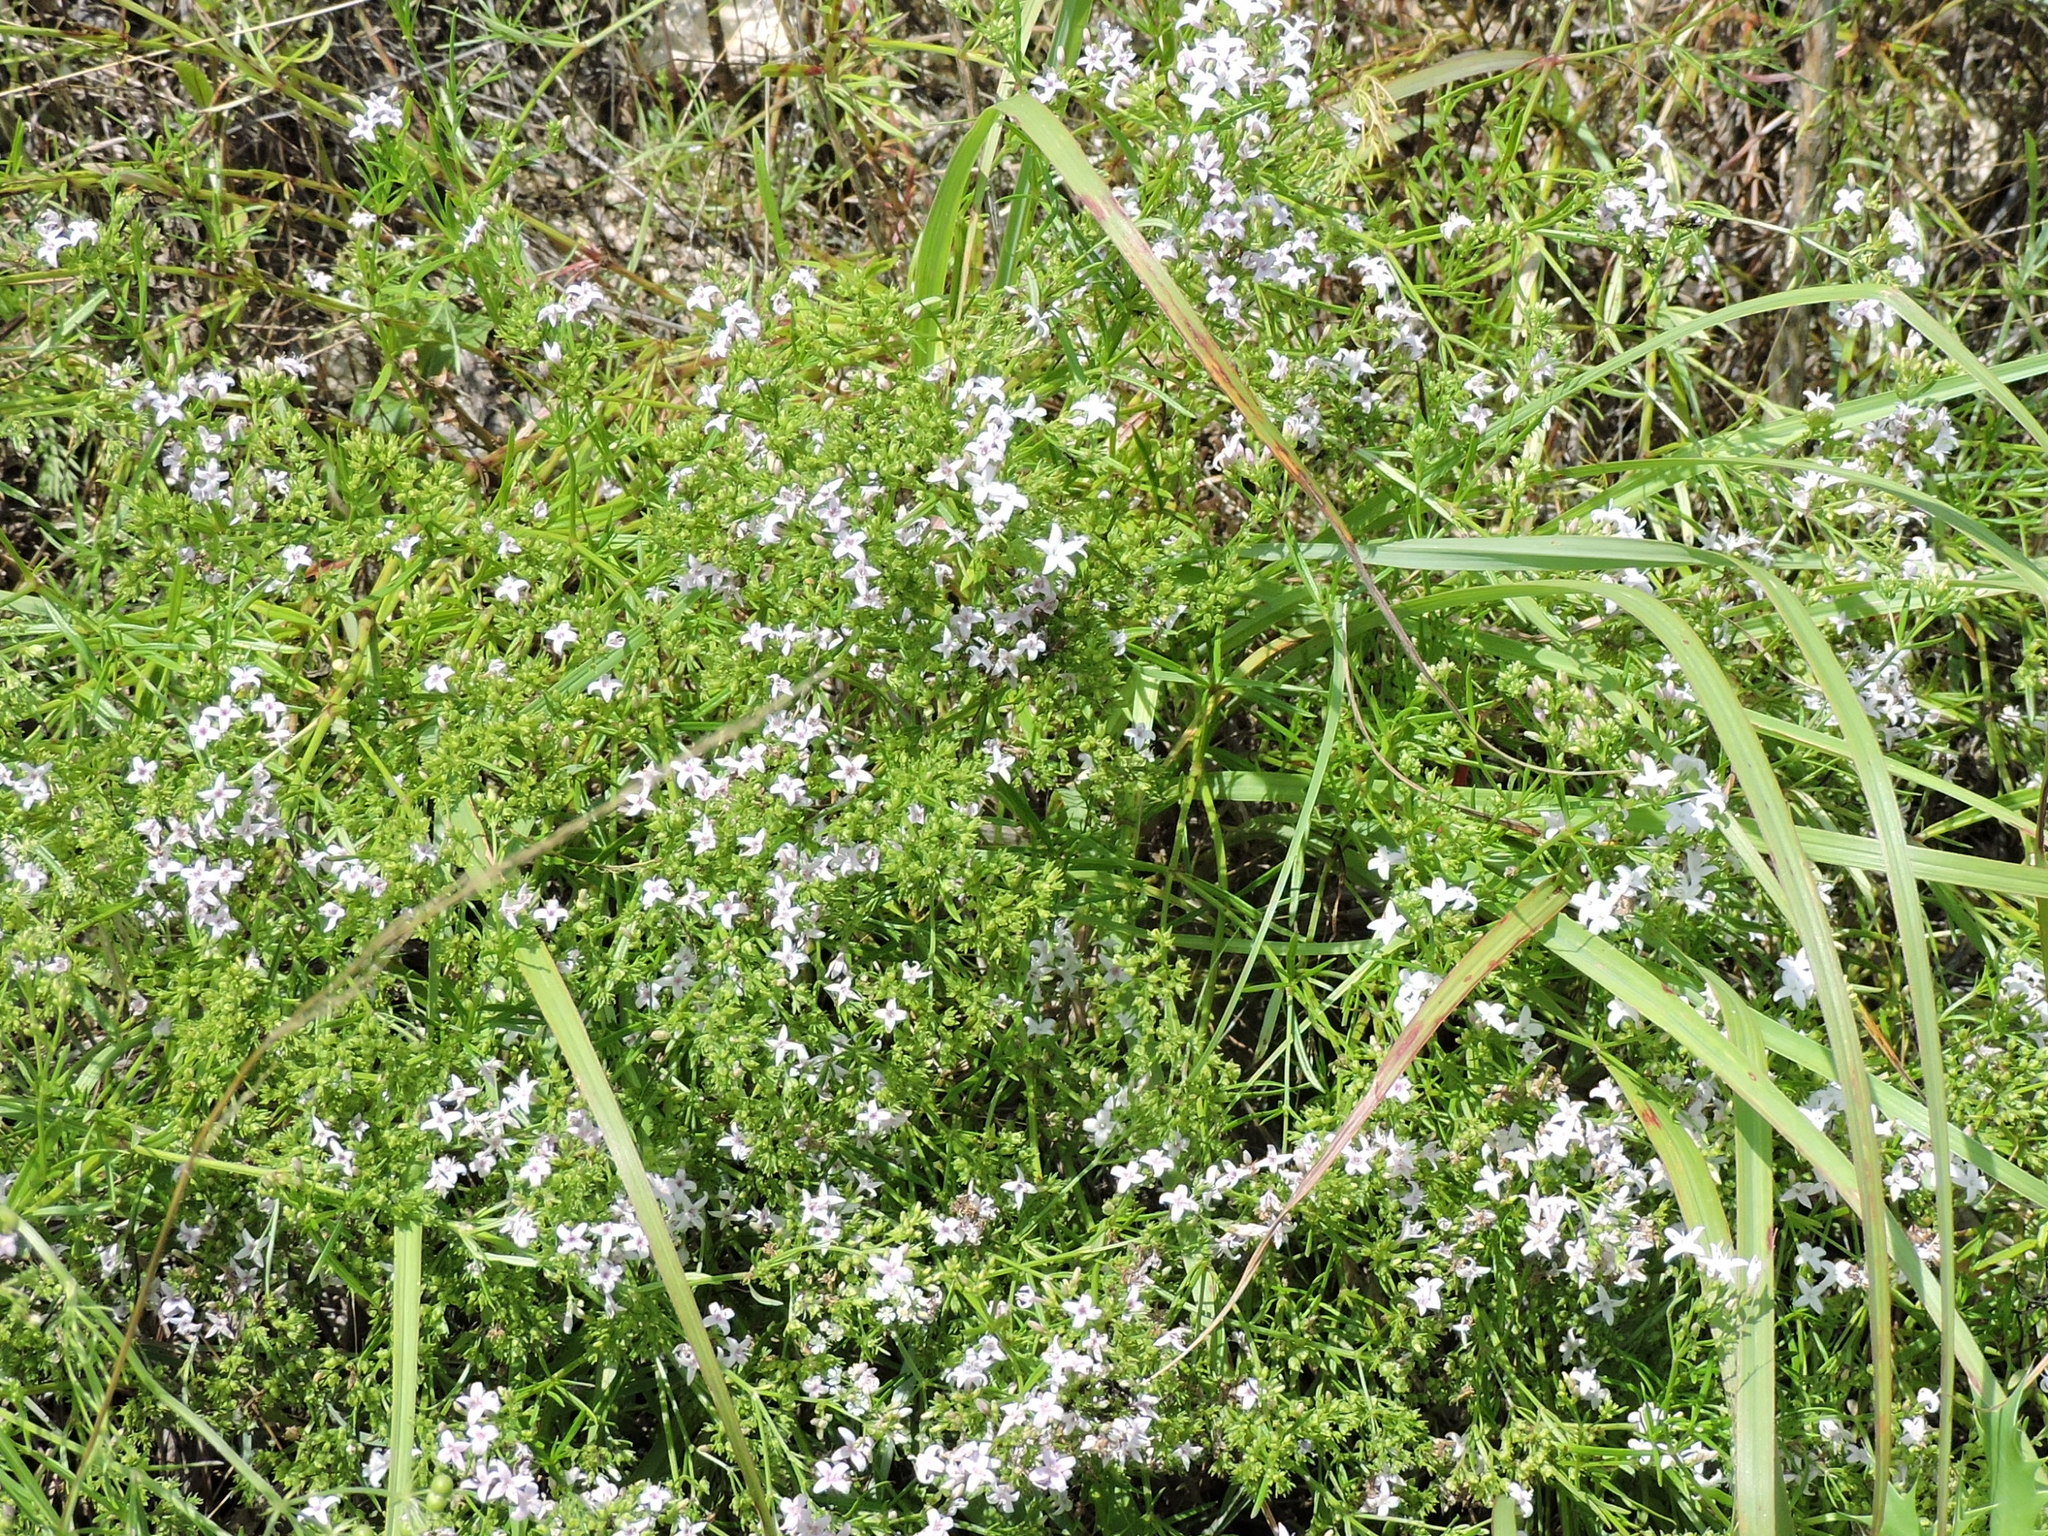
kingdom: Plantae
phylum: Tracheophyta
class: Magnoliopsida
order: Gentianales
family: Rubiaceae
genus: Stenaria
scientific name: Stenaria nigricans
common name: Diamondflowers
